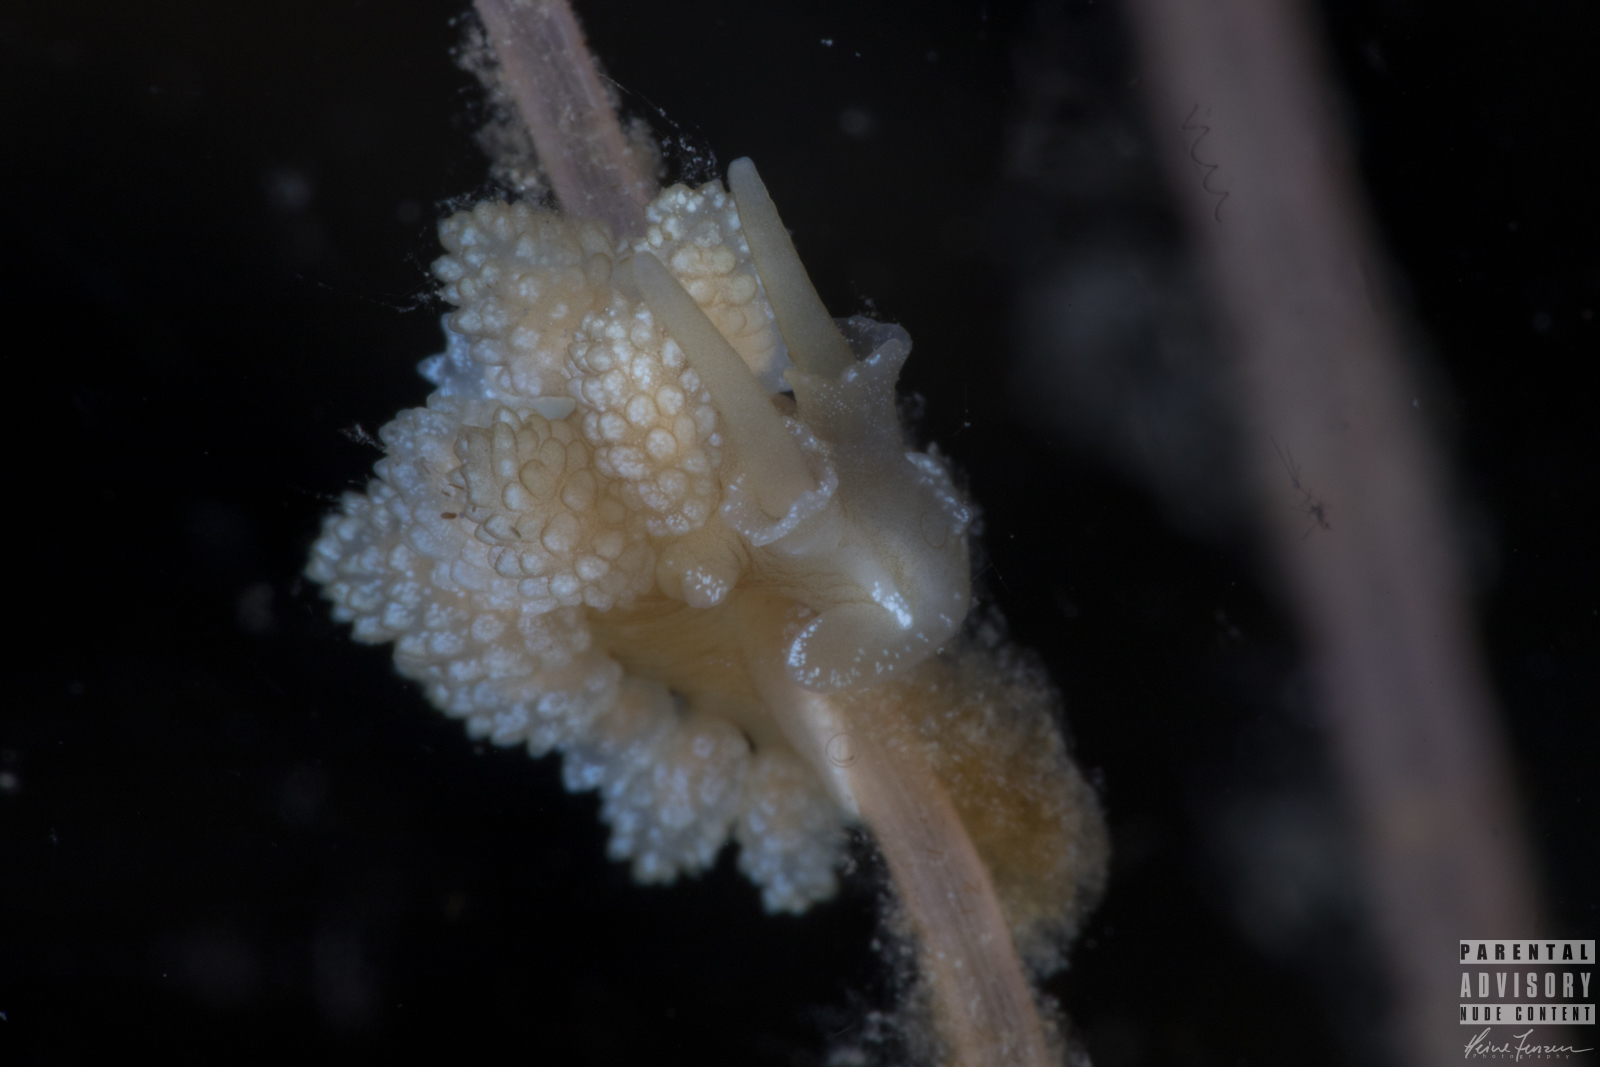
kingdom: Animalia
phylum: Mollusca
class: Gastropoda
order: Nudibranchia
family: Dotidae
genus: Doto
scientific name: Doto fragilis
